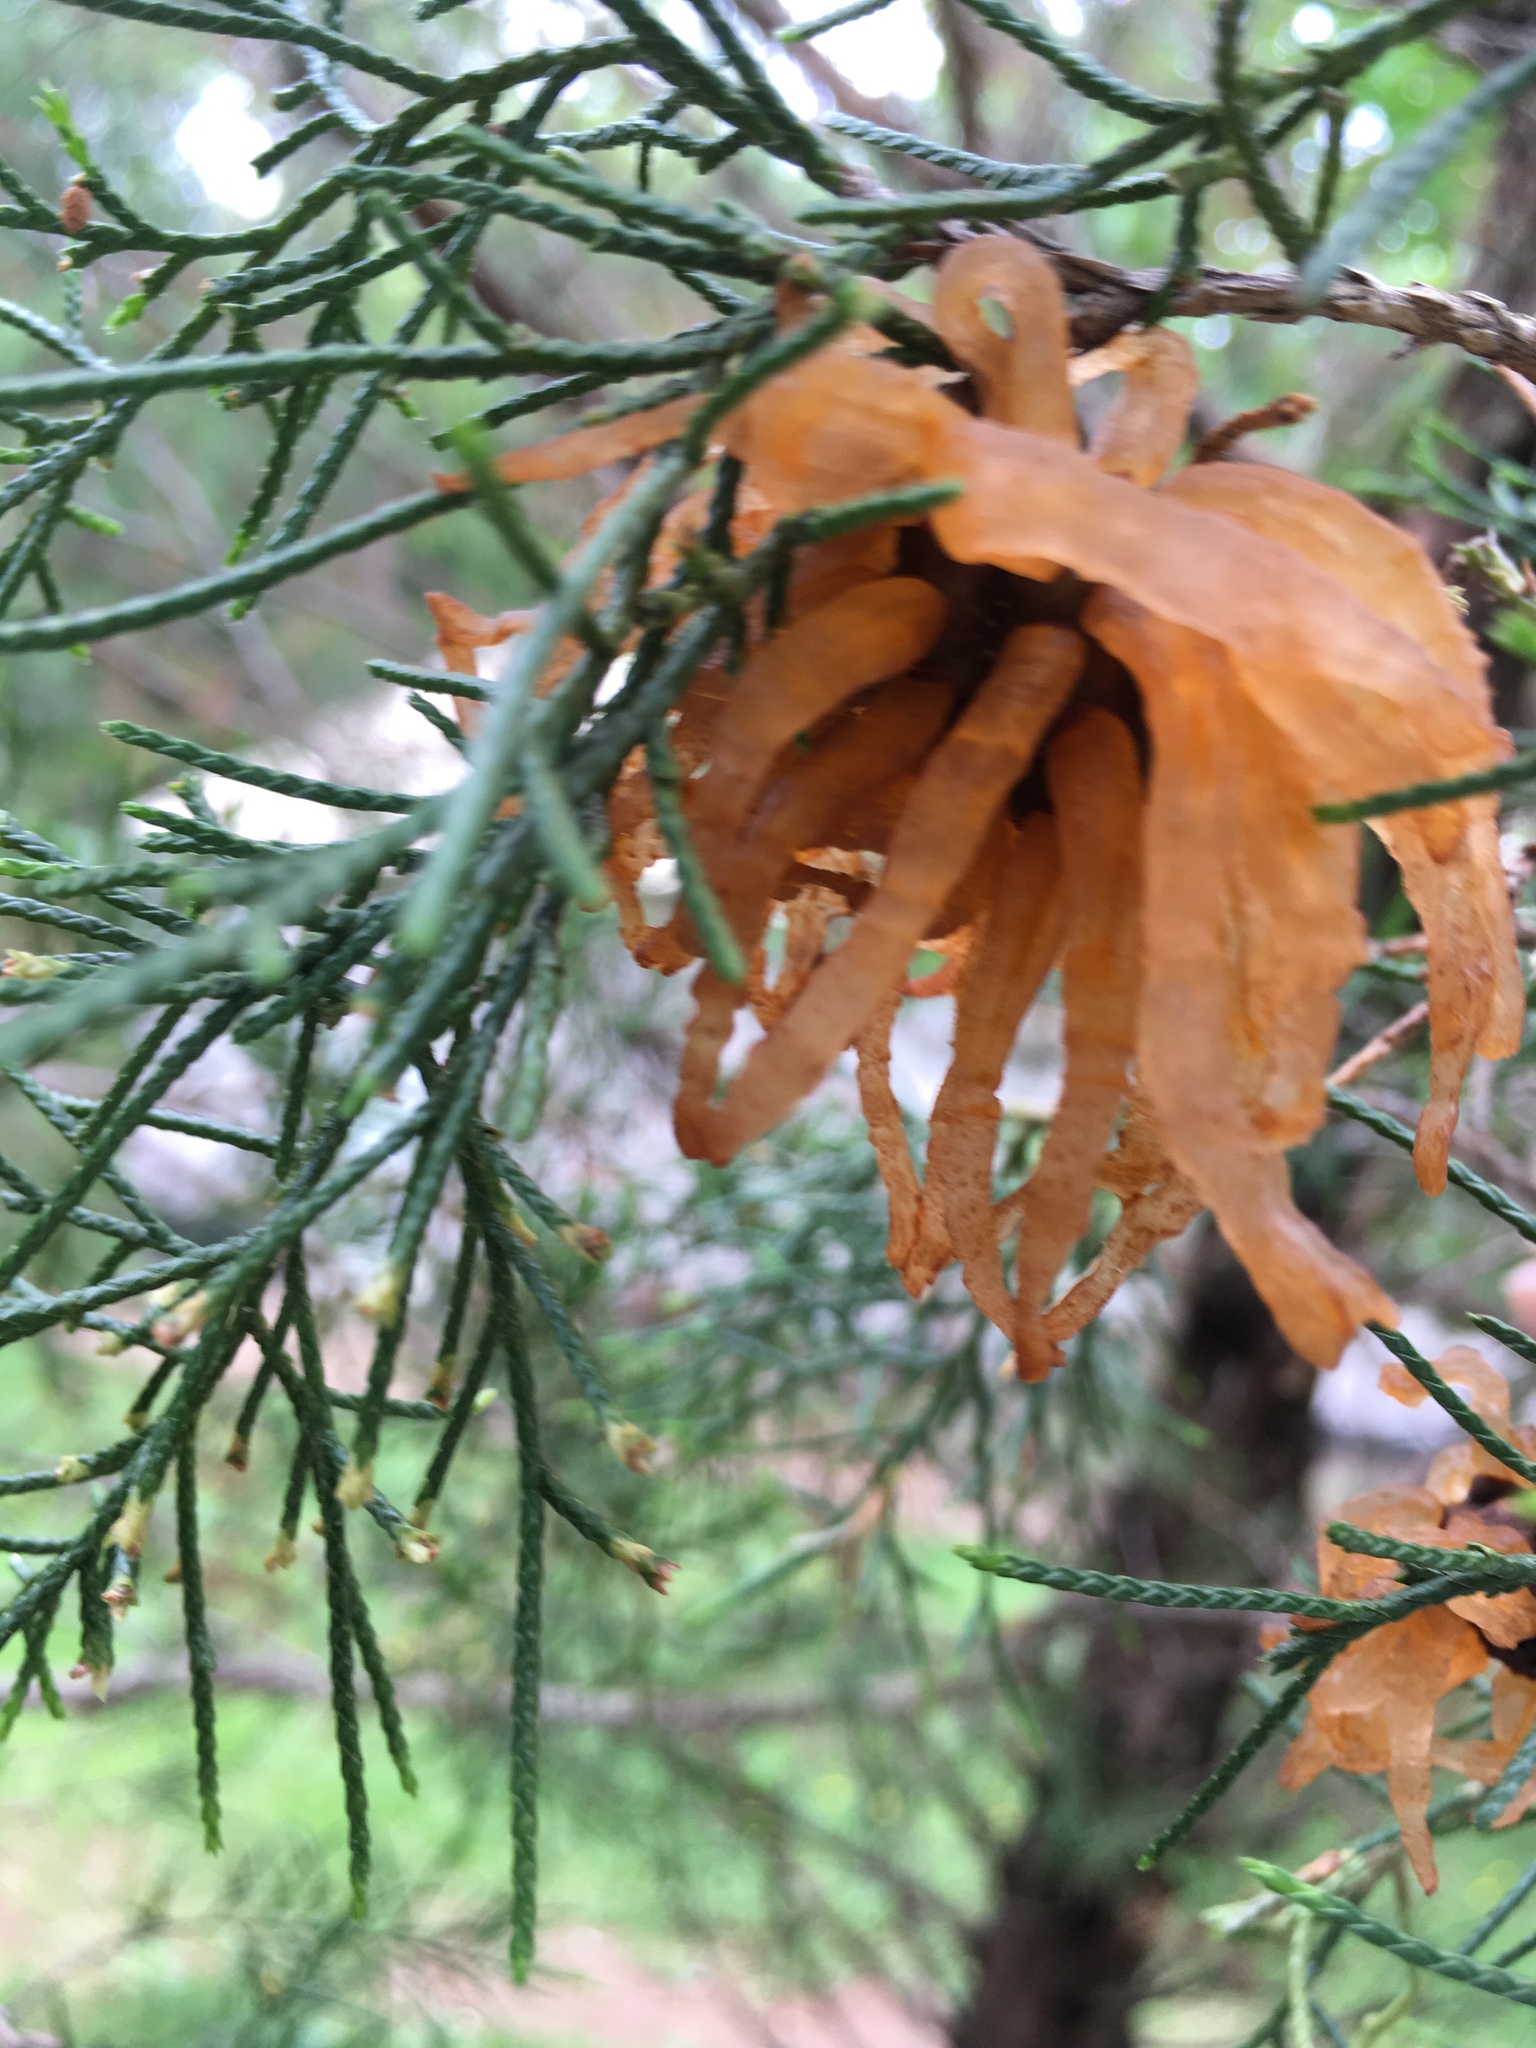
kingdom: Fungi
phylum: Basidiomycota
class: Pucciniomycetes
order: Pucciniales
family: Gymnosporangiaceae
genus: Gymnosporangium
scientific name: Gymnosporangium juniperi-virginianae
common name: Juniper-apple rust
